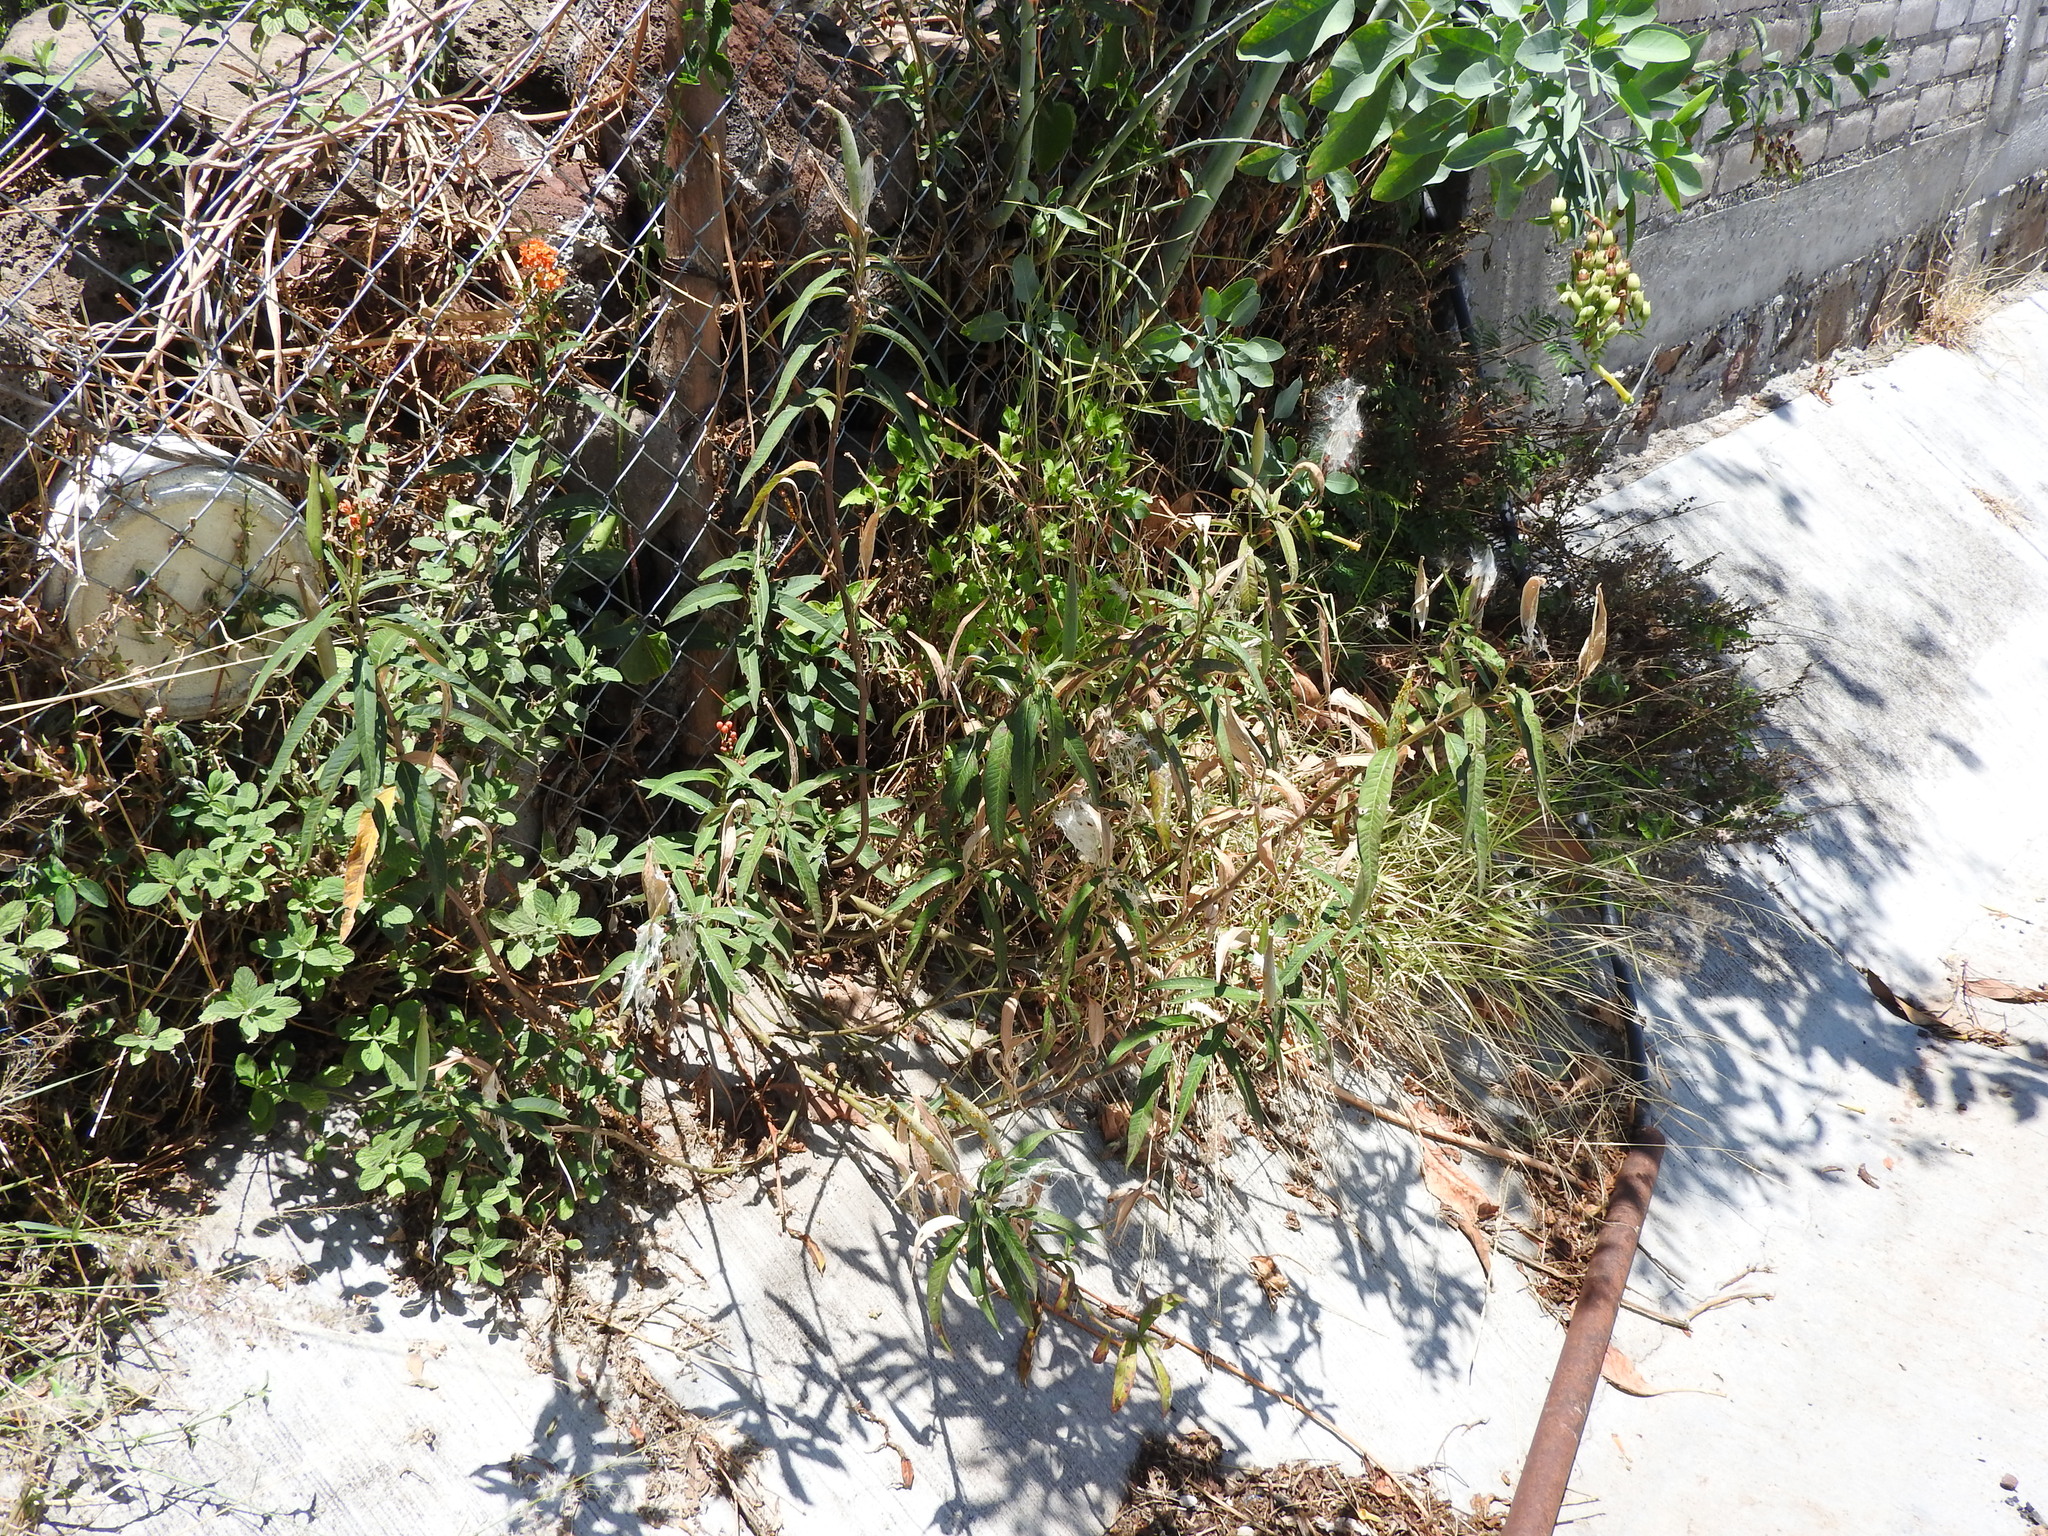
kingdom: Plantae
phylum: Tracheophyta
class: Magnoliopsida
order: Gentianales
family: Apocynaceae
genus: Asclepias
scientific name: Asclepias curassavica
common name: Bloodflower
